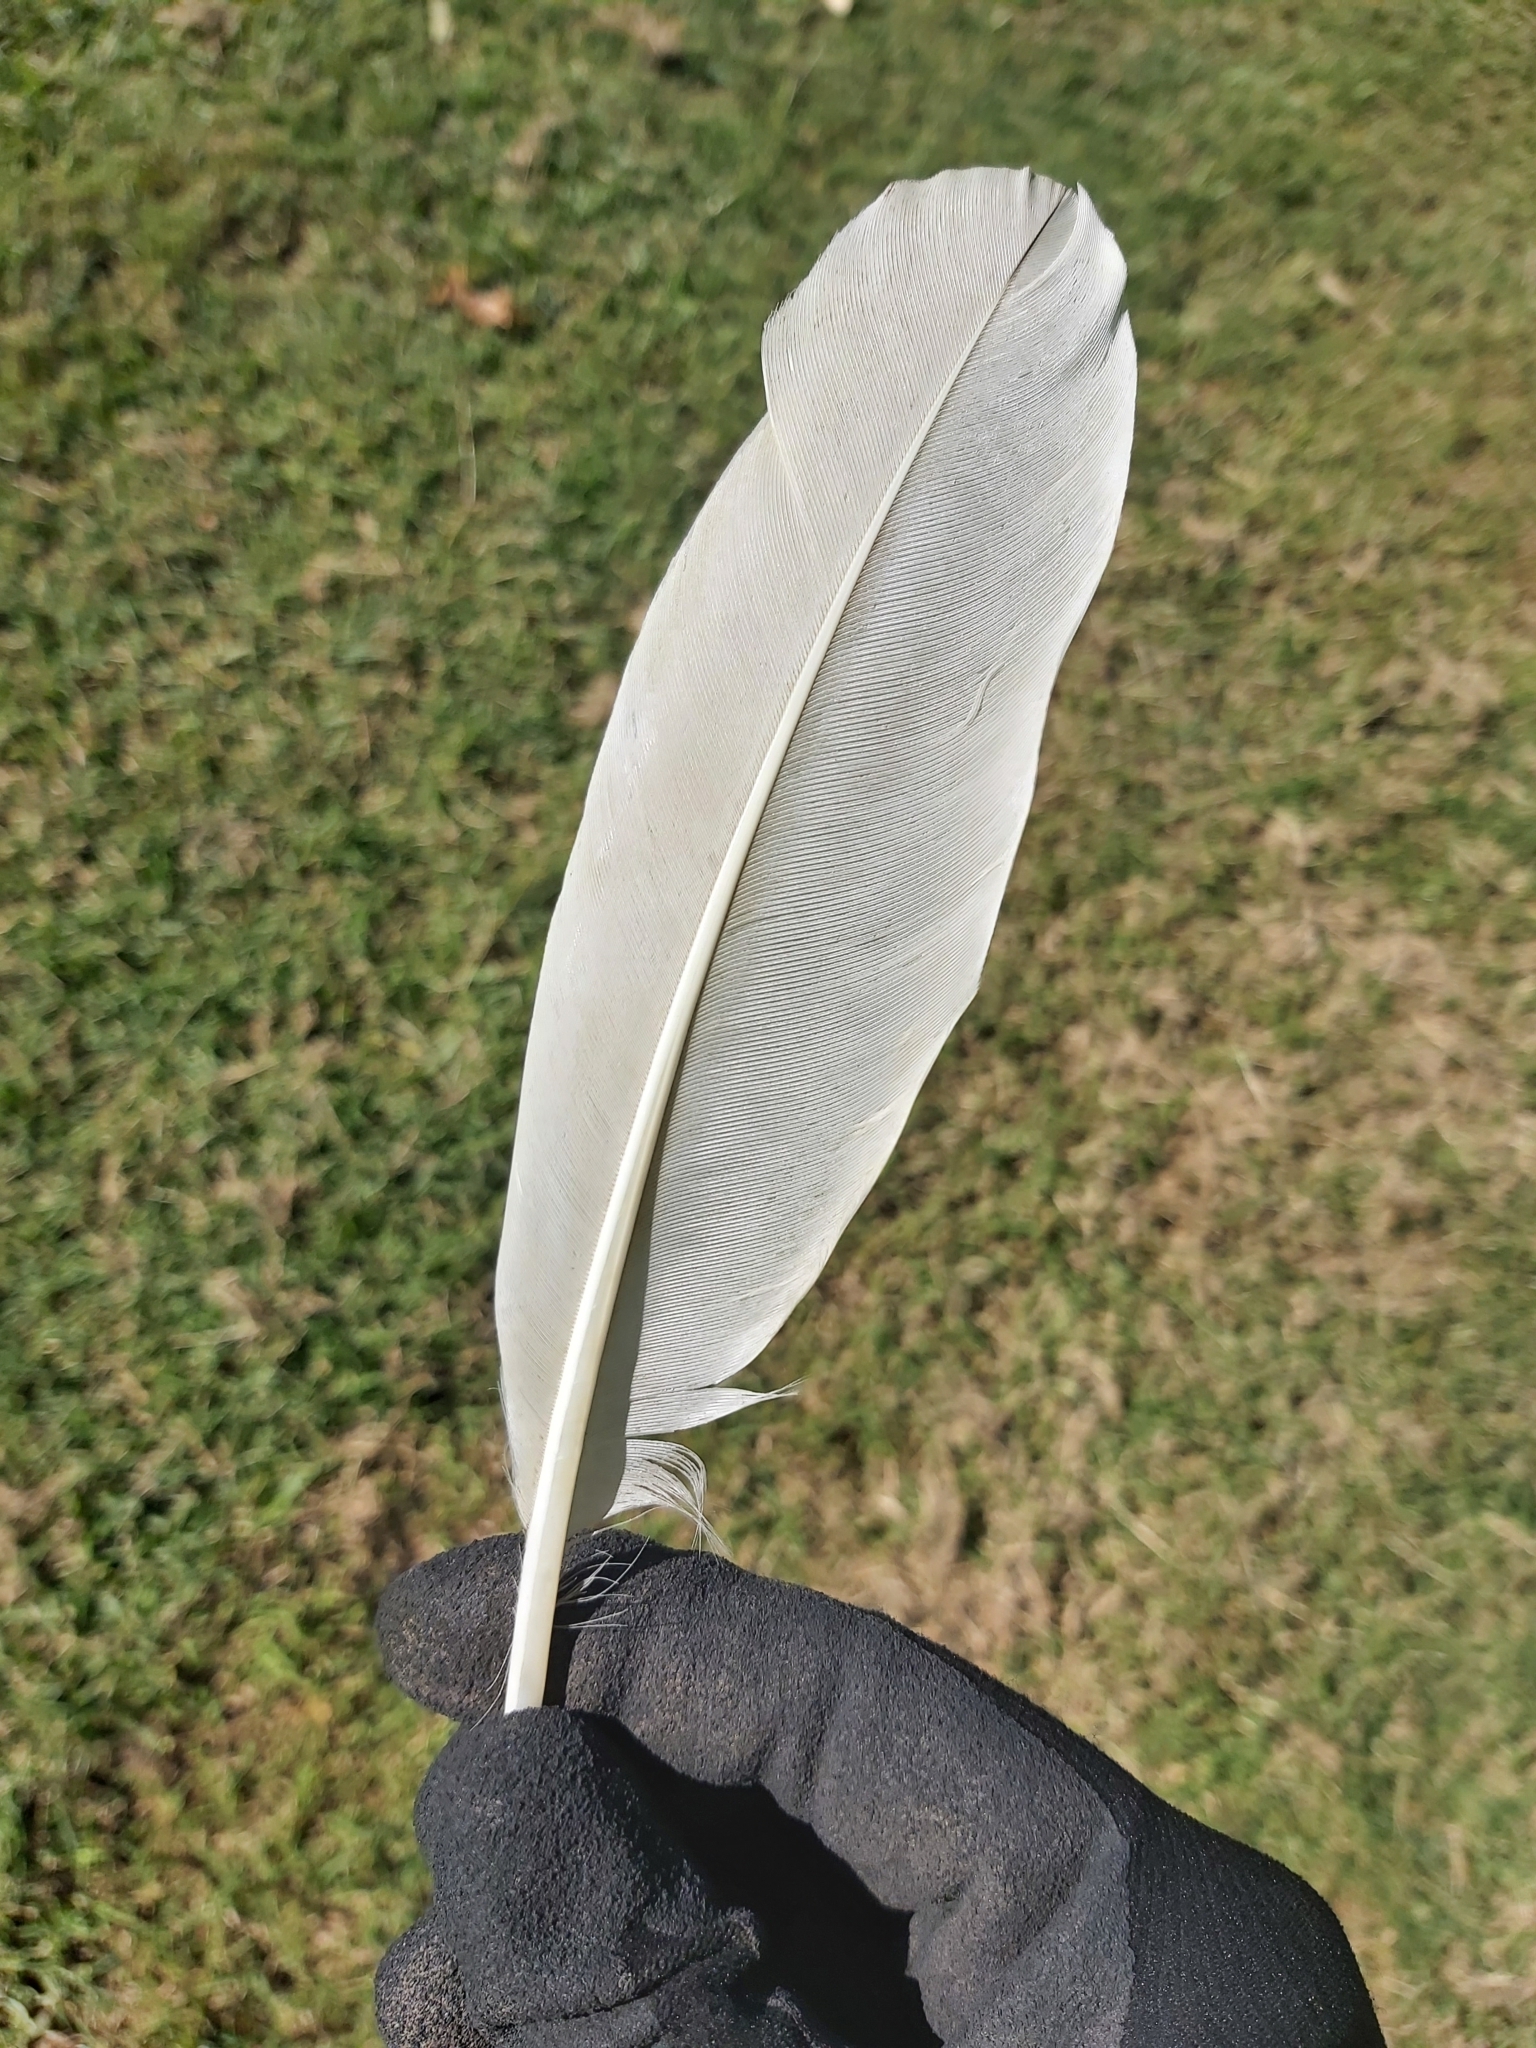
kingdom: Animalia
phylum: Chordata
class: Aves
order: Pelecaniformes
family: Threskiornithidae
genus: Threskiornis
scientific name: Threskiornis molucca
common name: Australian white ibis
